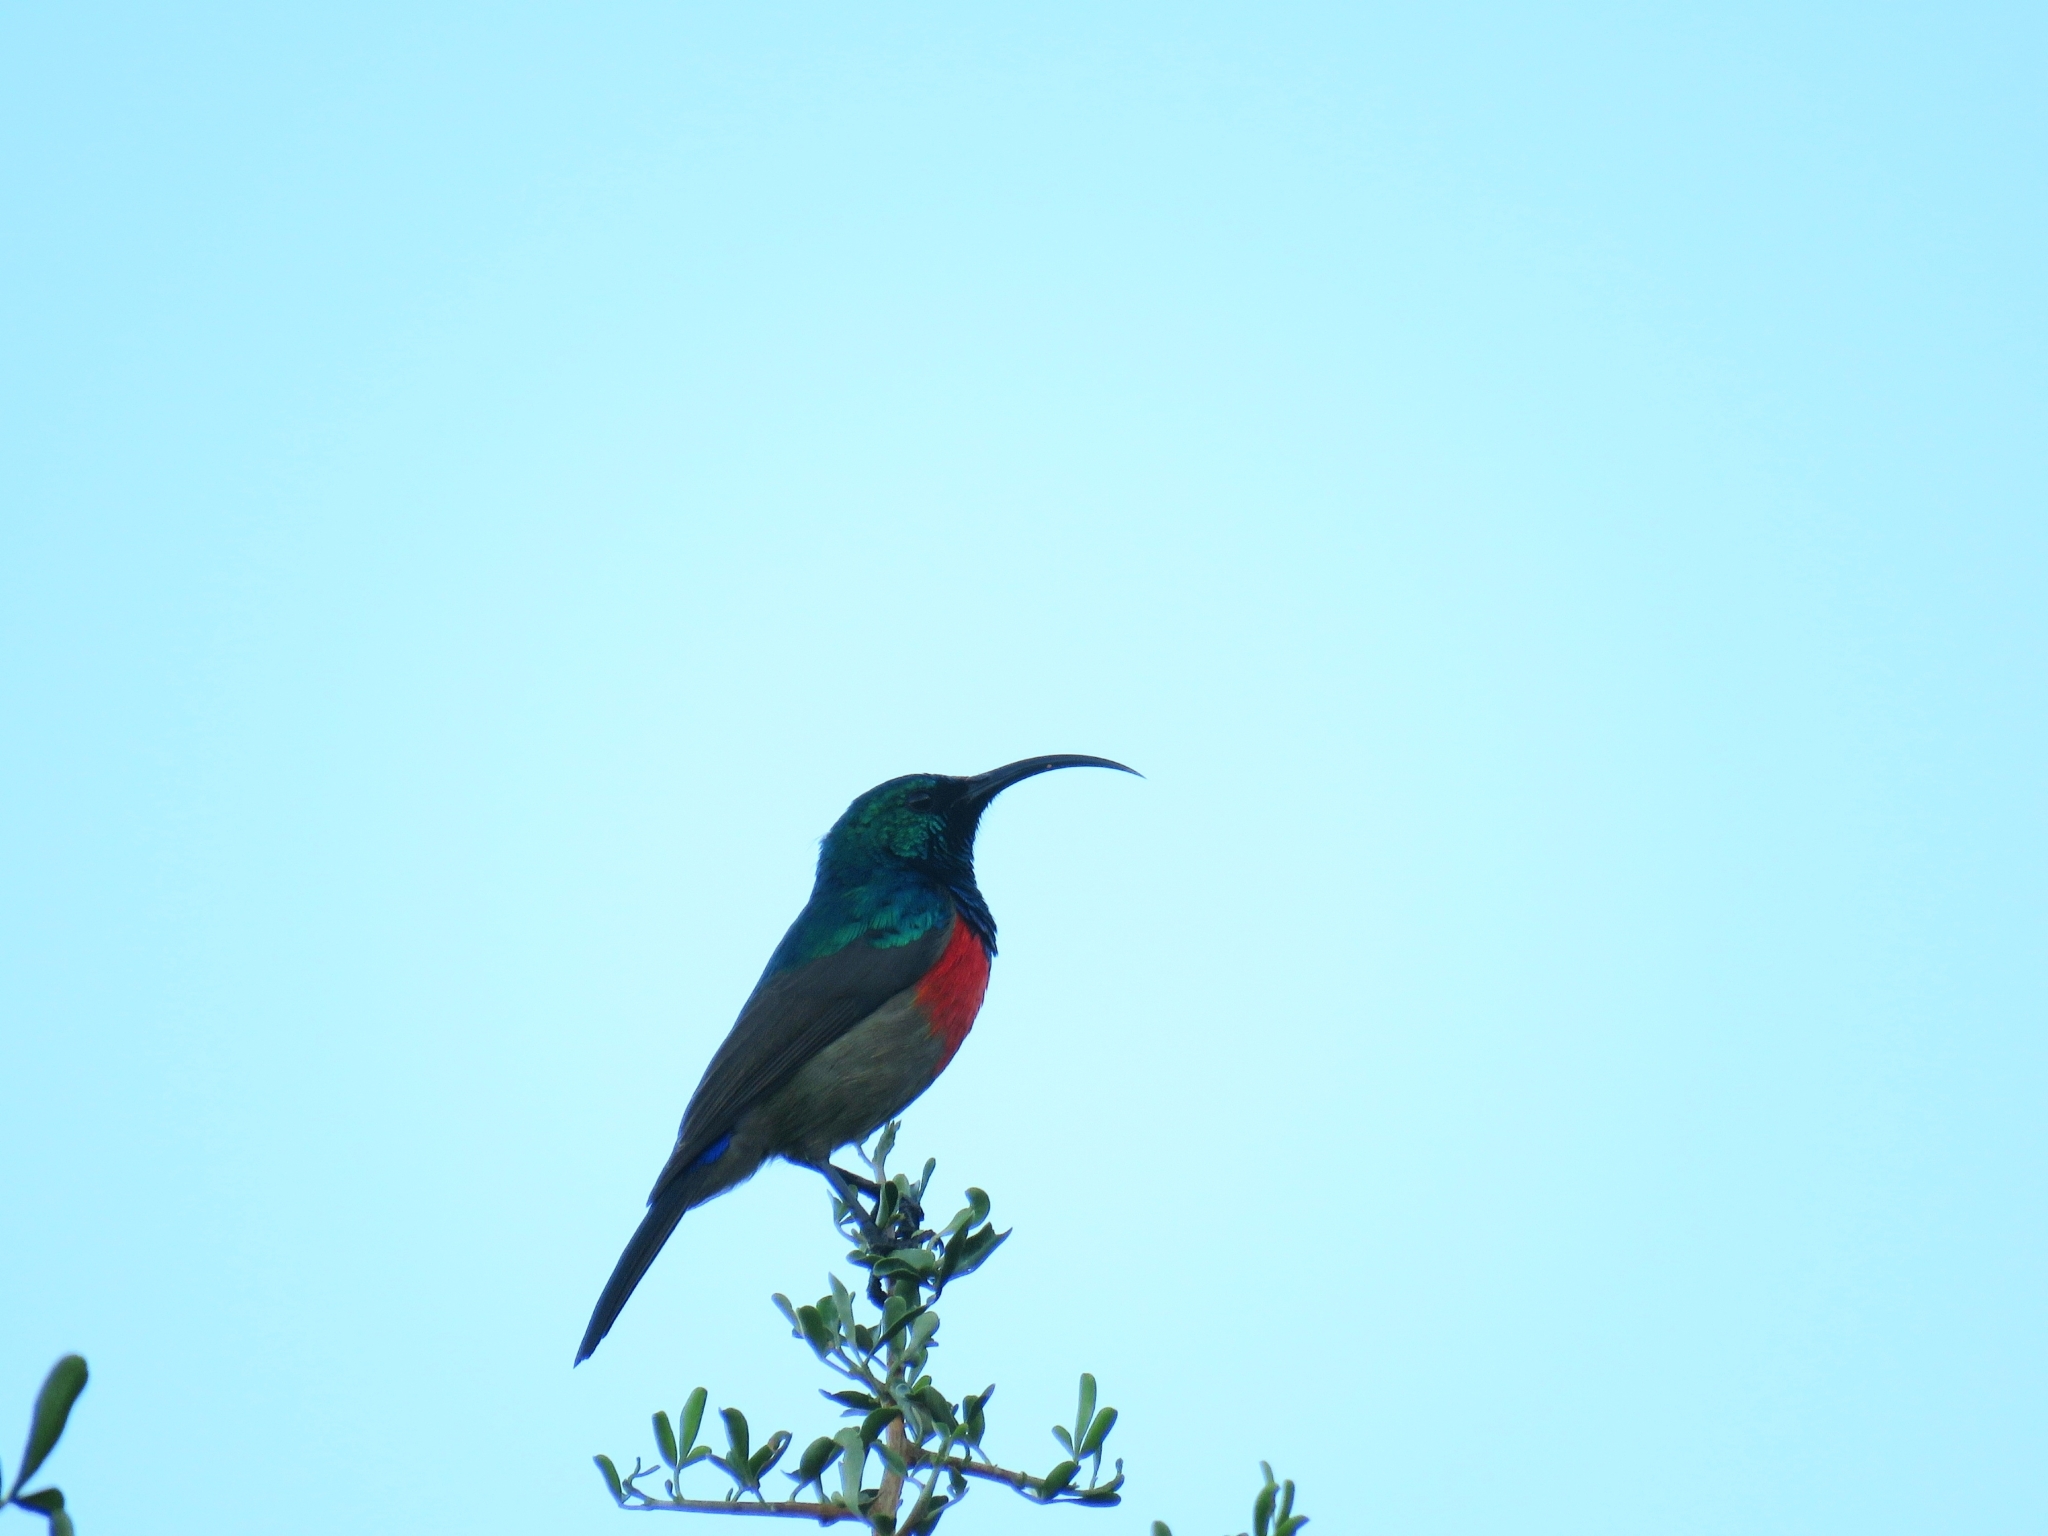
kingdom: Animalia
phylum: Chordata
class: Aves
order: Passeriformes
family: Nectariniidae
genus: Cinnyris
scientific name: Cinnyris afer
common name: Greater double-collared sunbird
